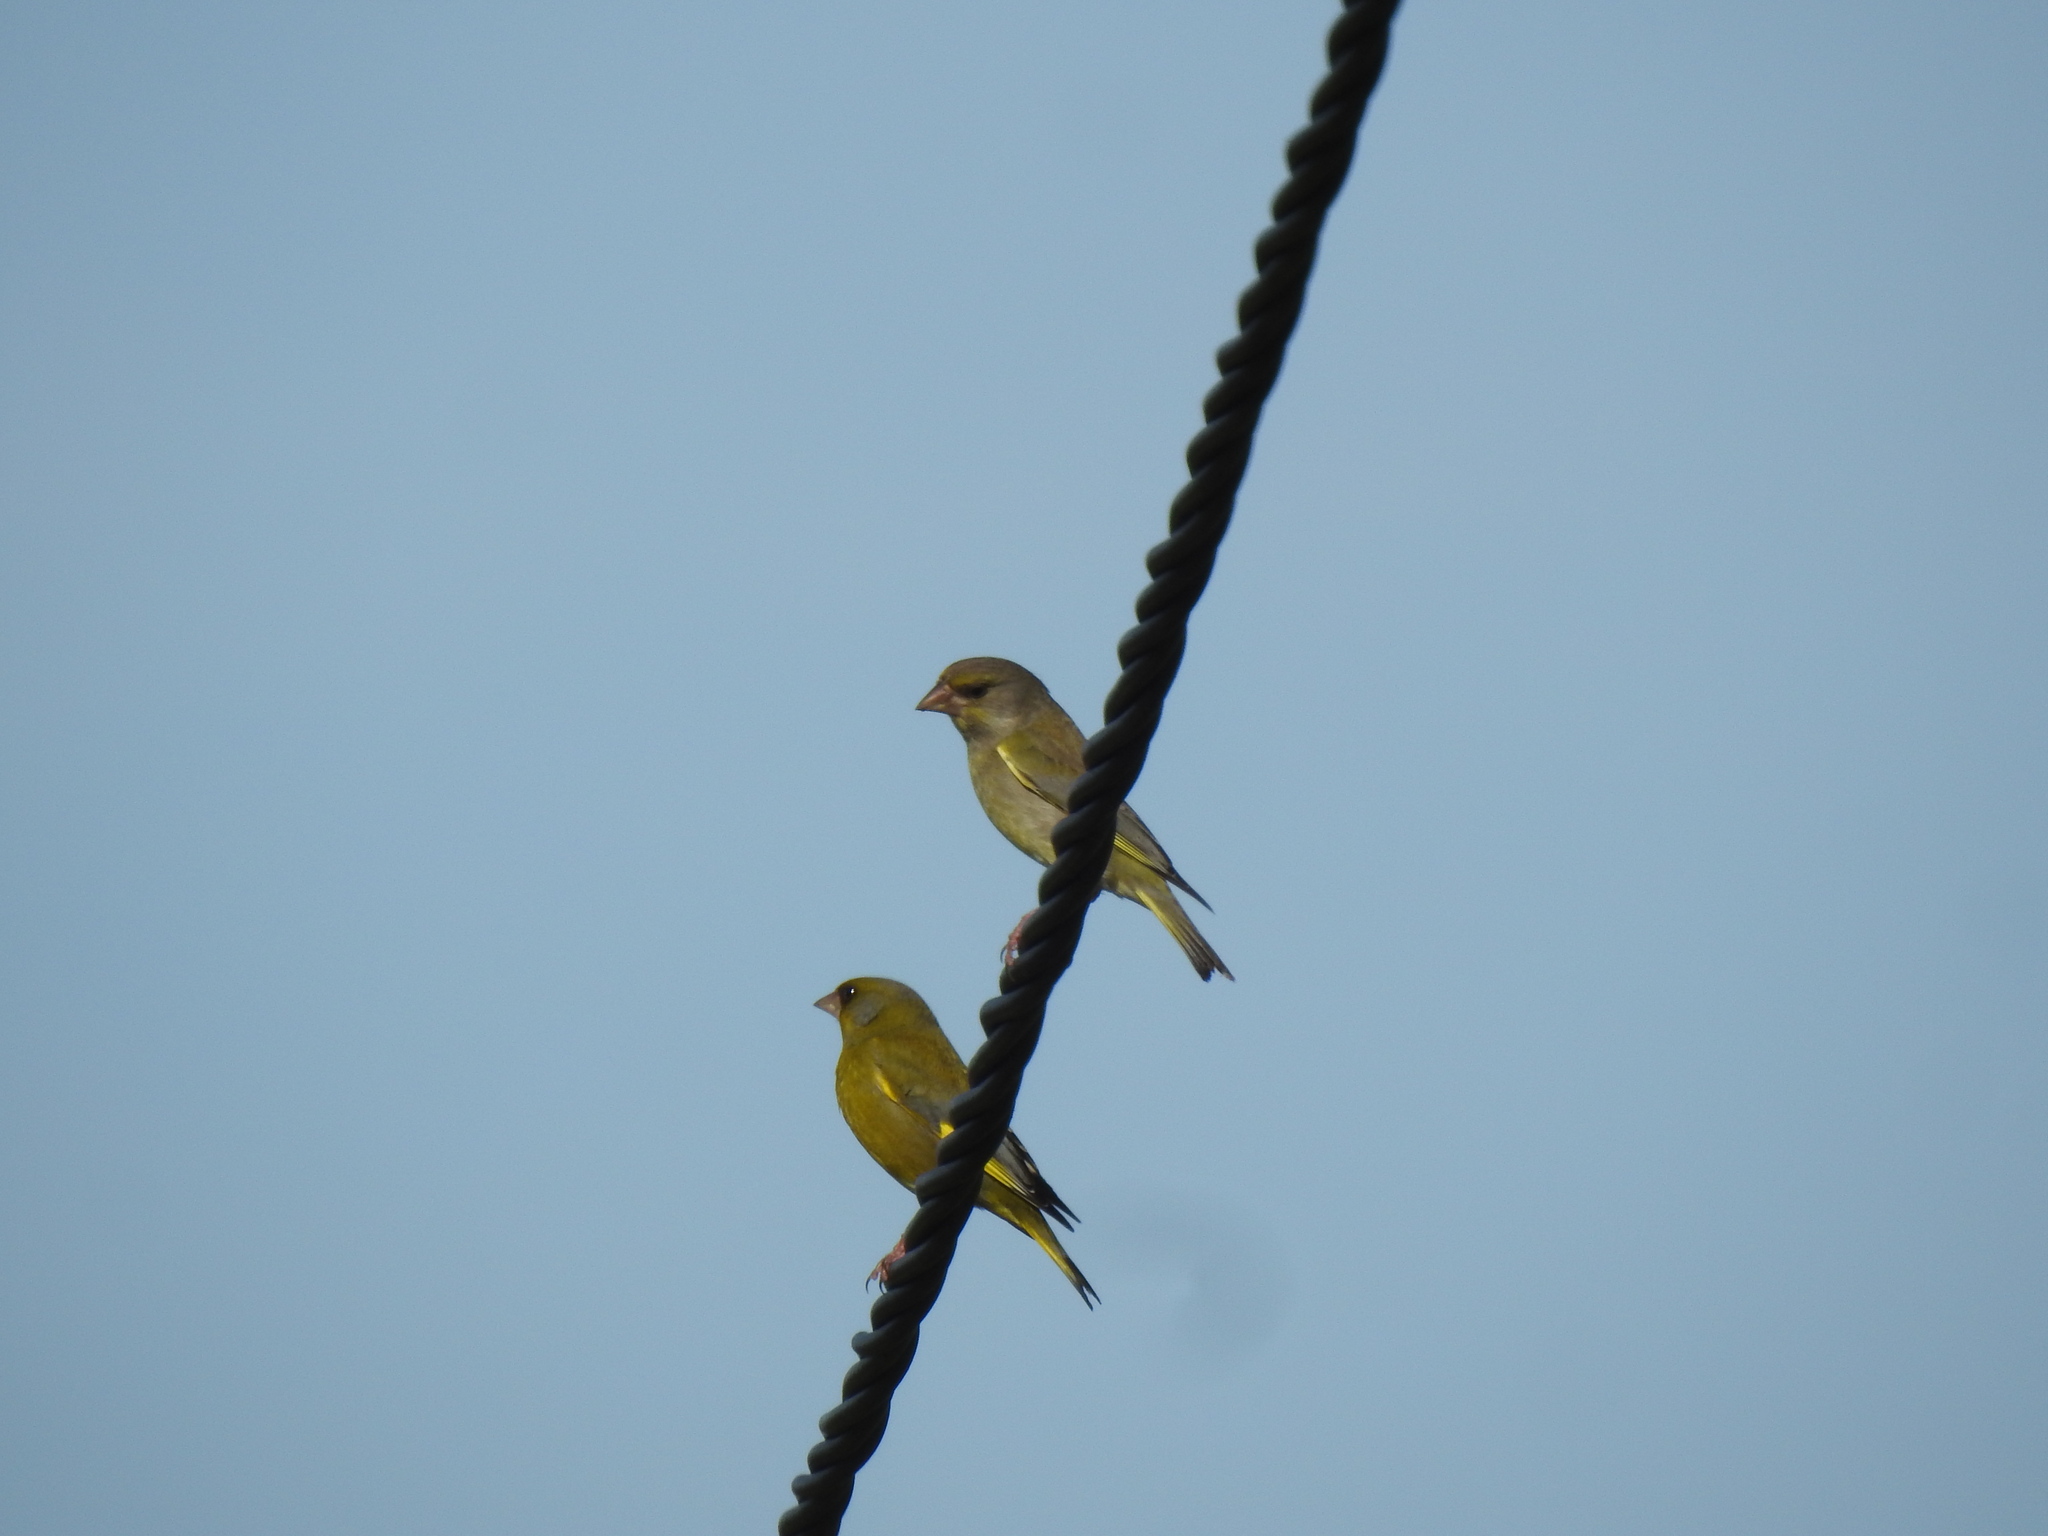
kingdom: Plantae
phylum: Tracheophyta
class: Liliopsida
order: Poales
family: Poaceae
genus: Chloris
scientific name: Chloris chloris
